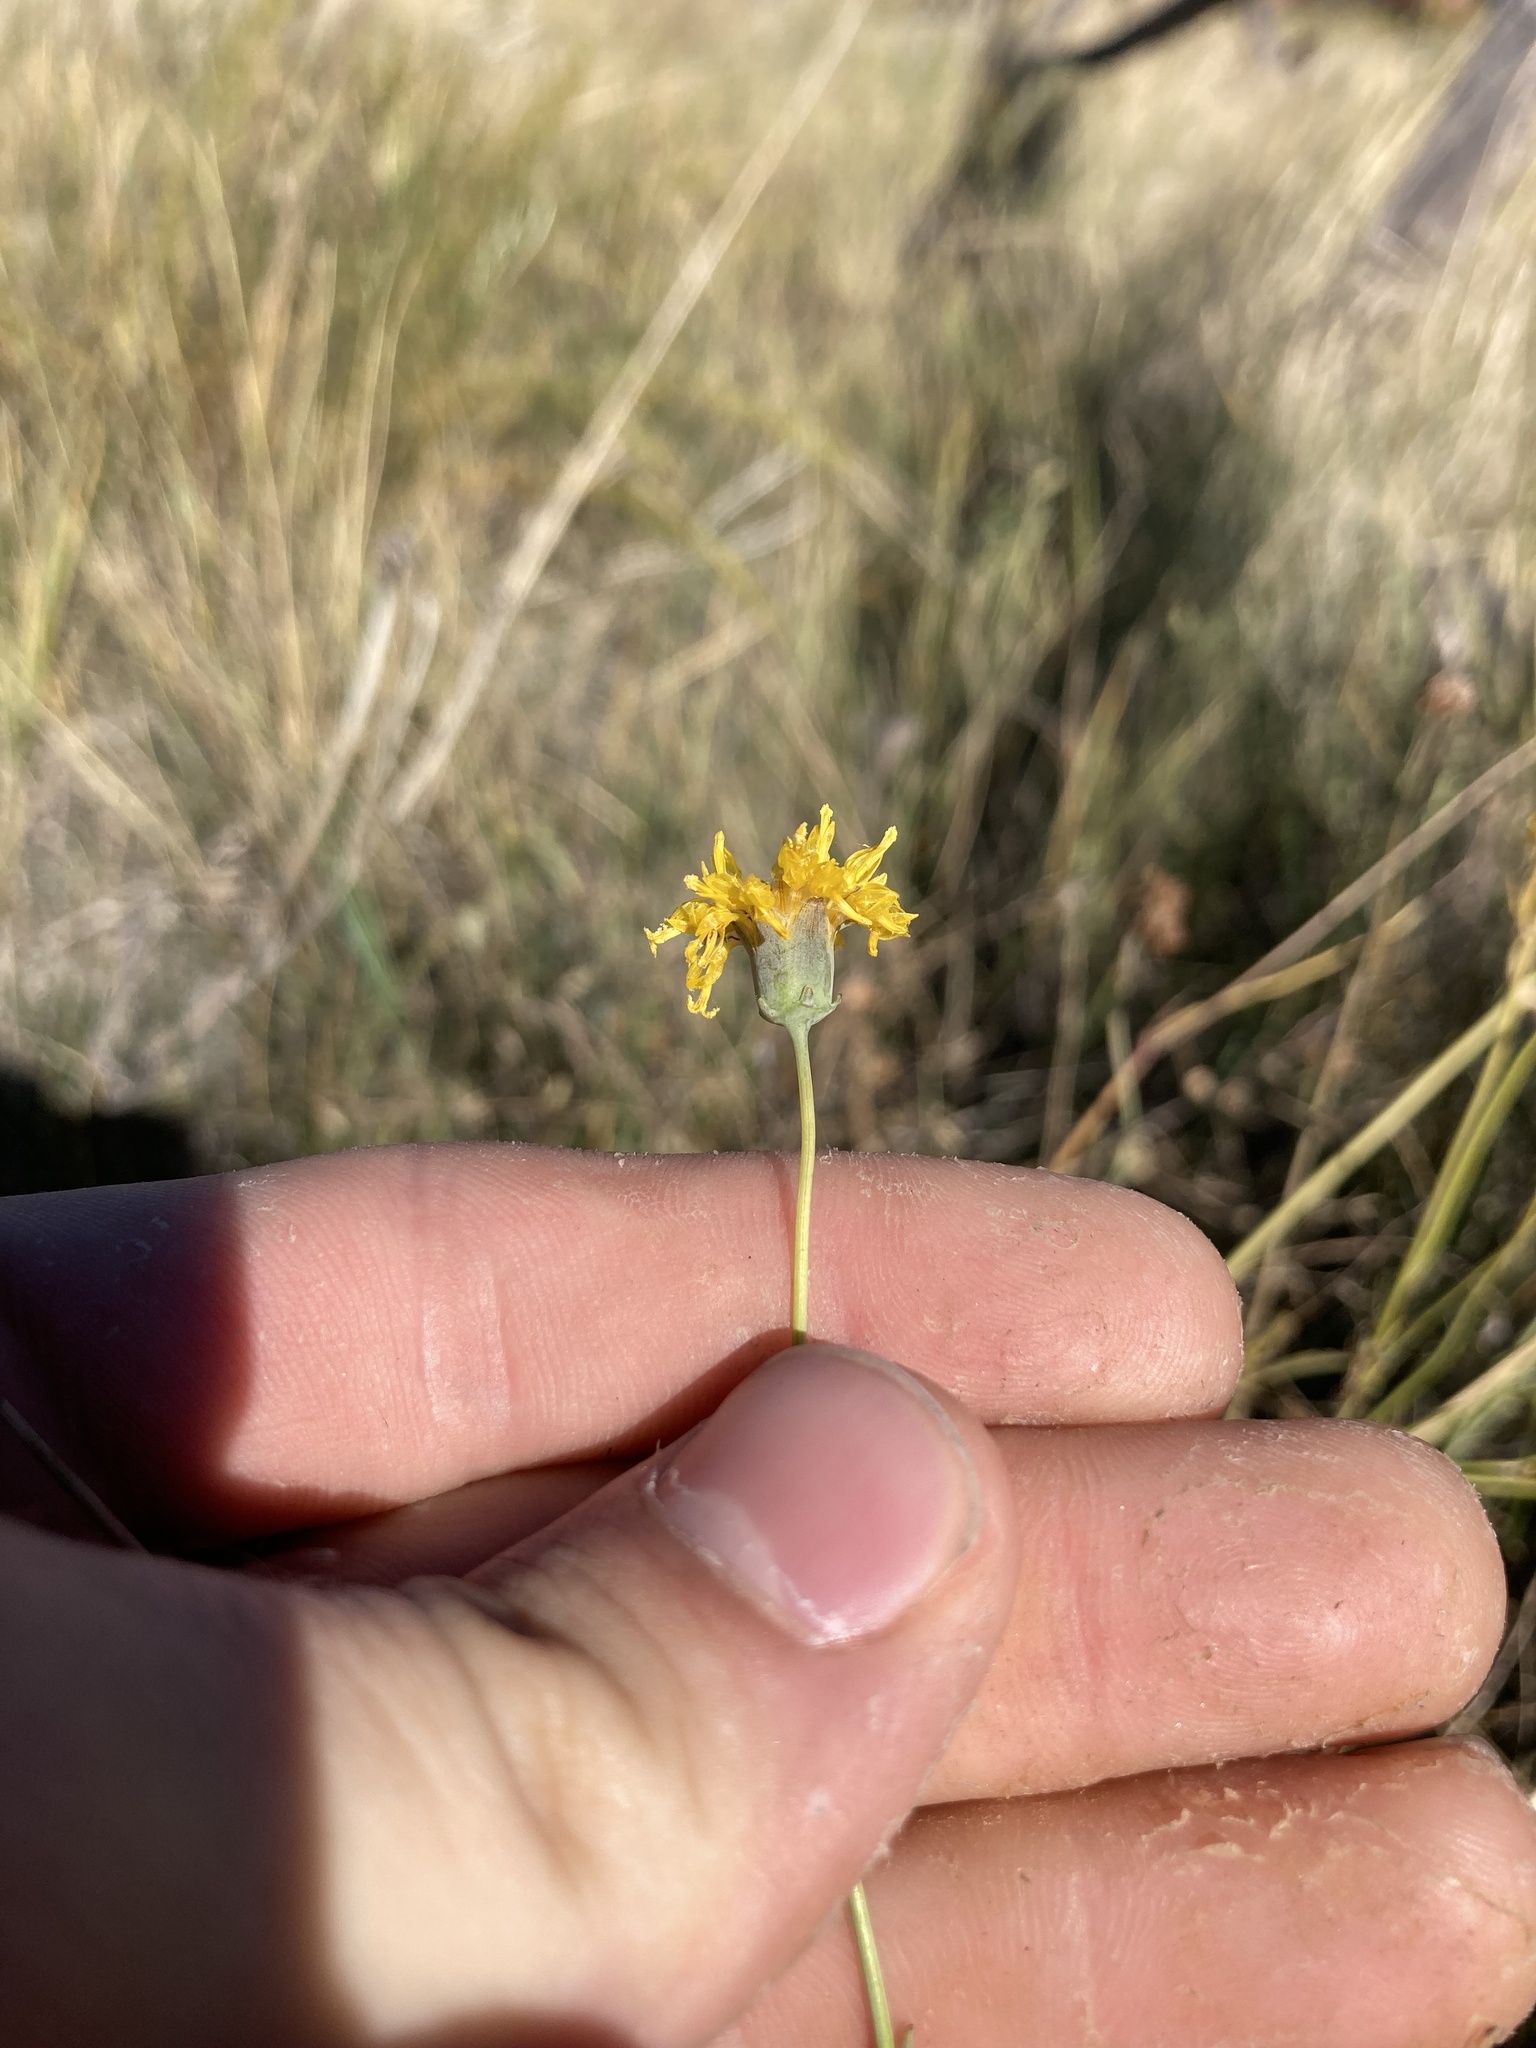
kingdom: Plantae
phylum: Tracheophyta
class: Magnoliopsida
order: Asterales
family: Asteraceae
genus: Thelesperma
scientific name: Thelesperma megapotamicum
